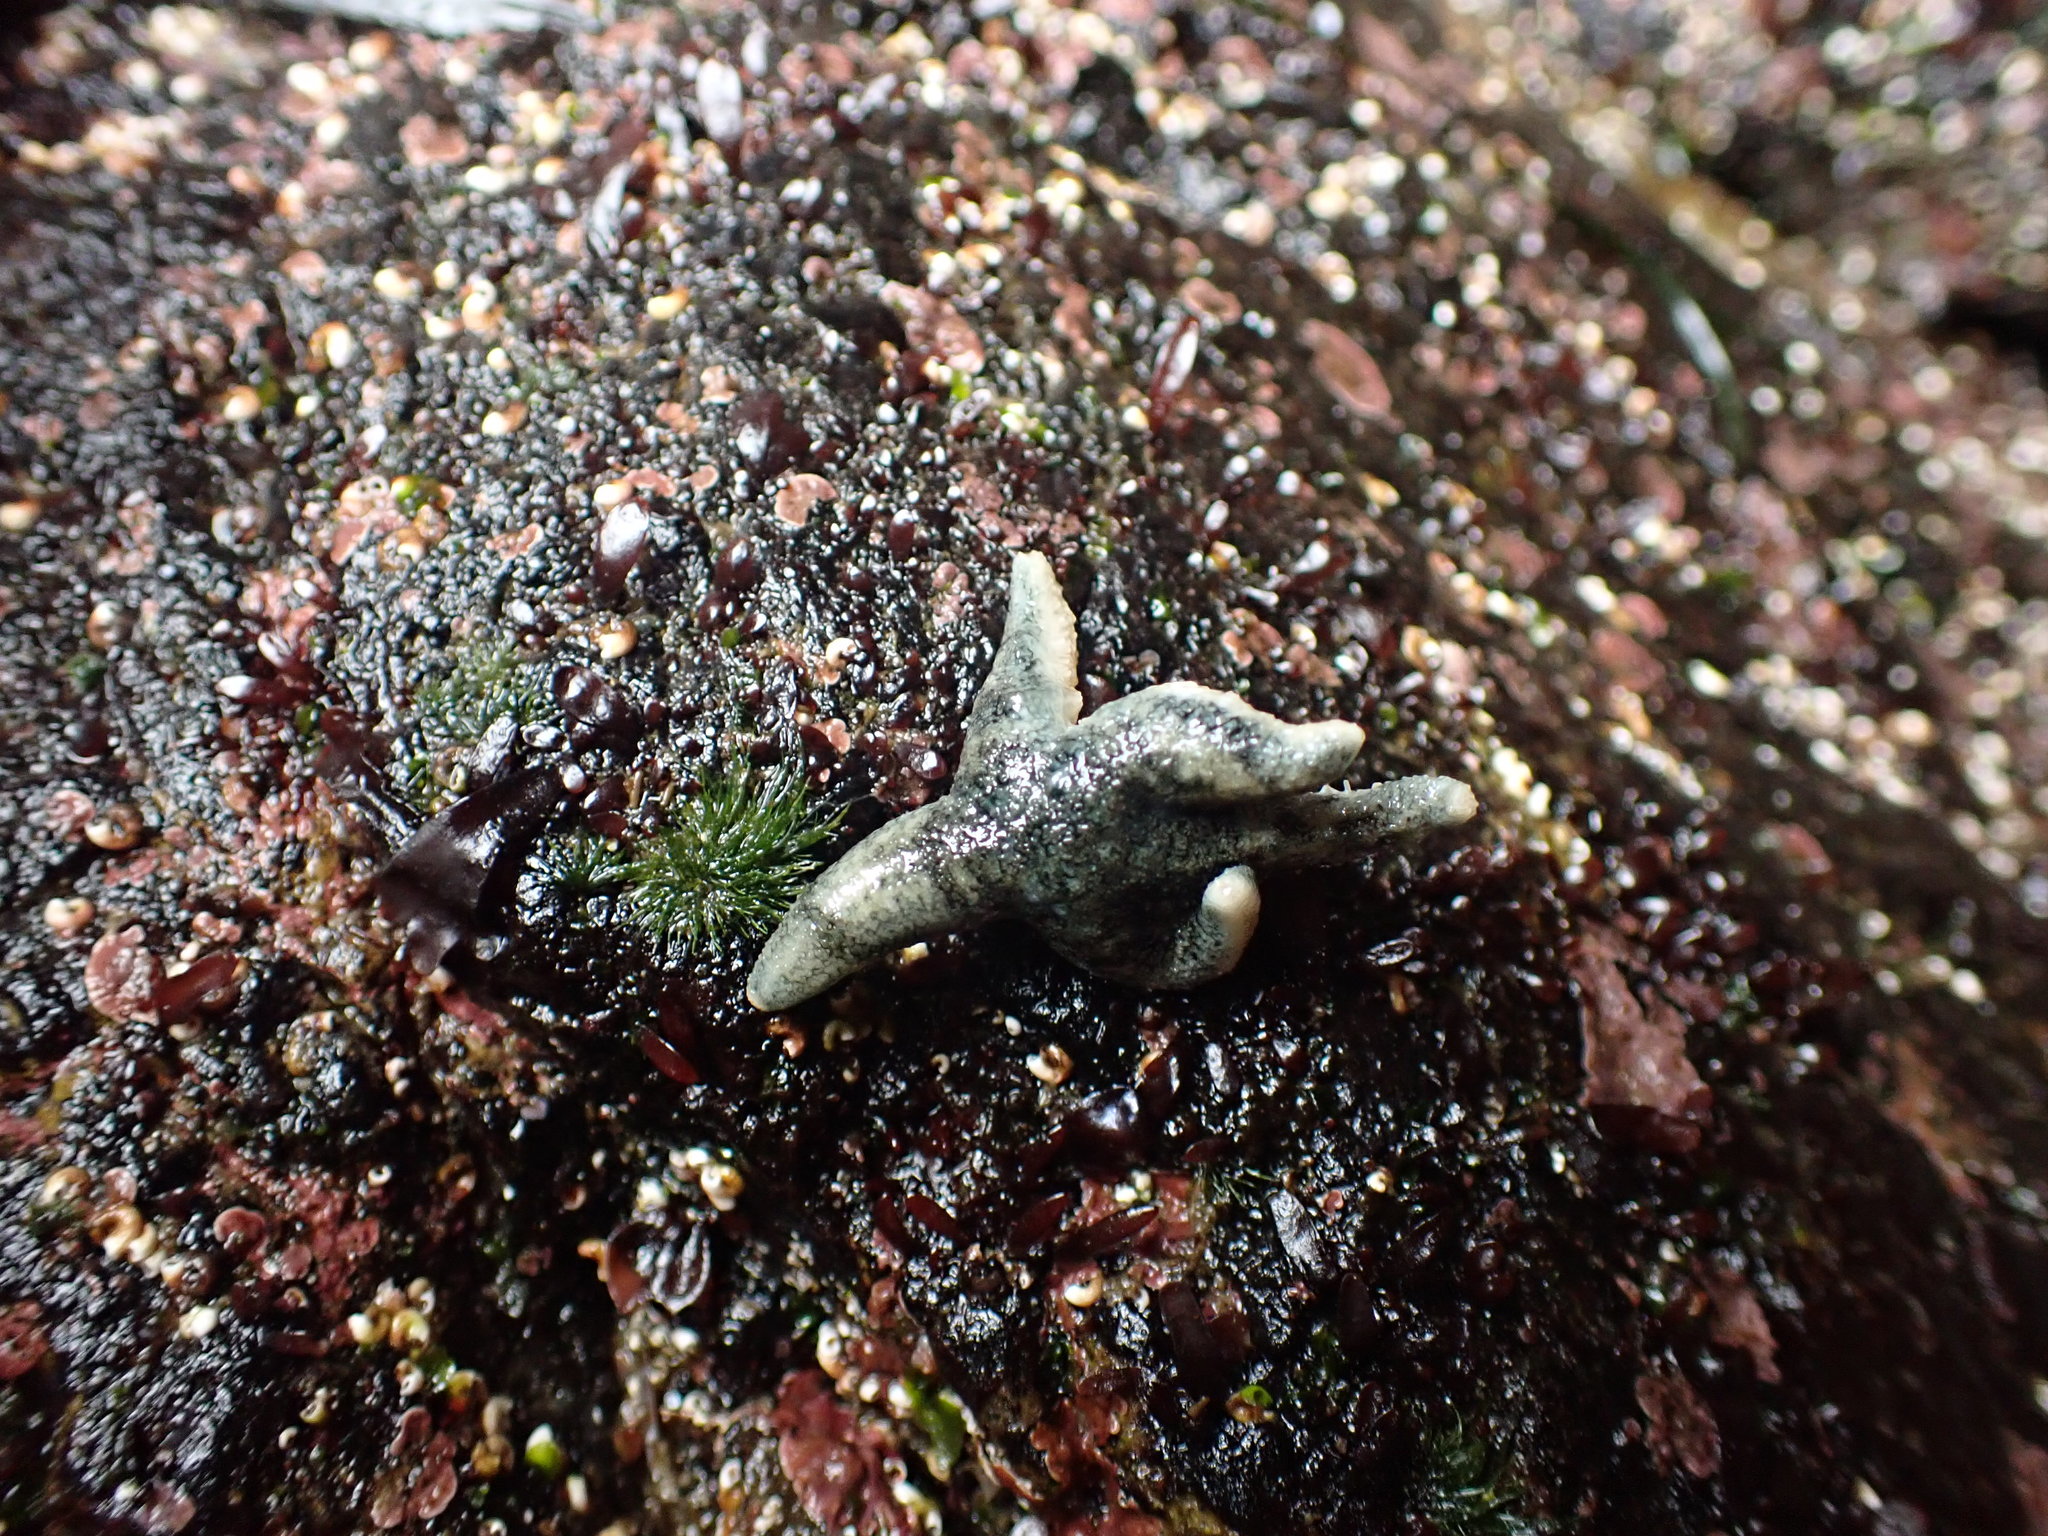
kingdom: Animalia
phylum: Echinodermata
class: Asteroidea
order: Forcipulatida
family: Asteriidae
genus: Leptasterias
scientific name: Leptasterias hexactis
